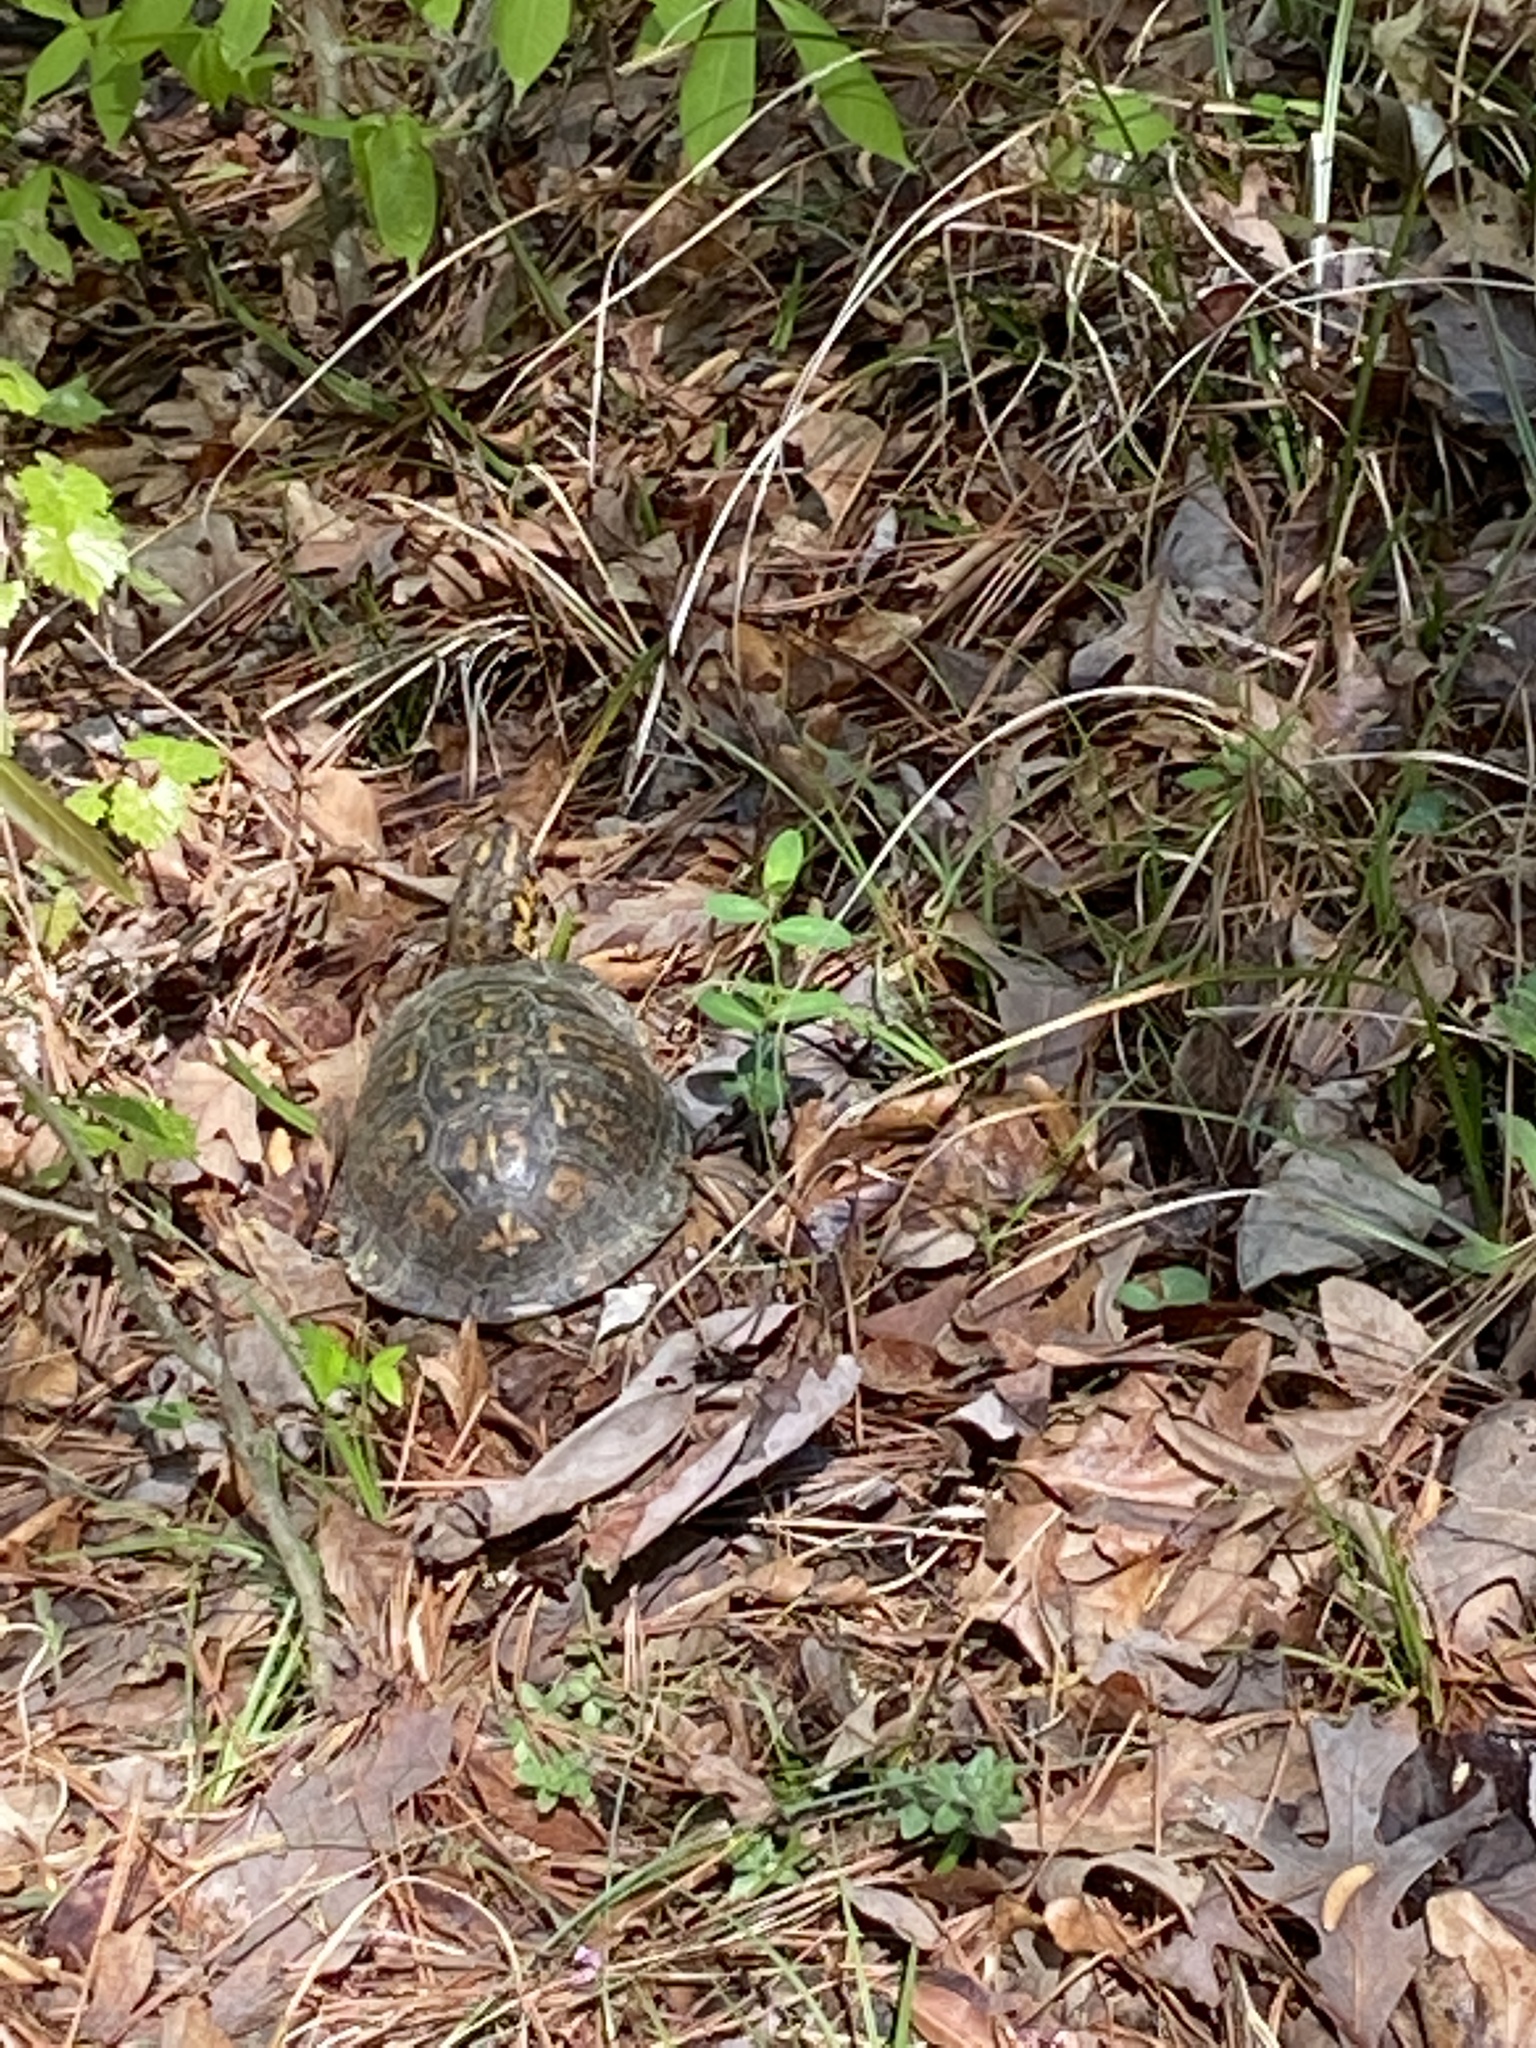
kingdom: Animalia
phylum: Chordata
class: Testudines
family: Emydidae
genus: Terrapene
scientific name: Terrapene carolina
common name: Common box turtle
